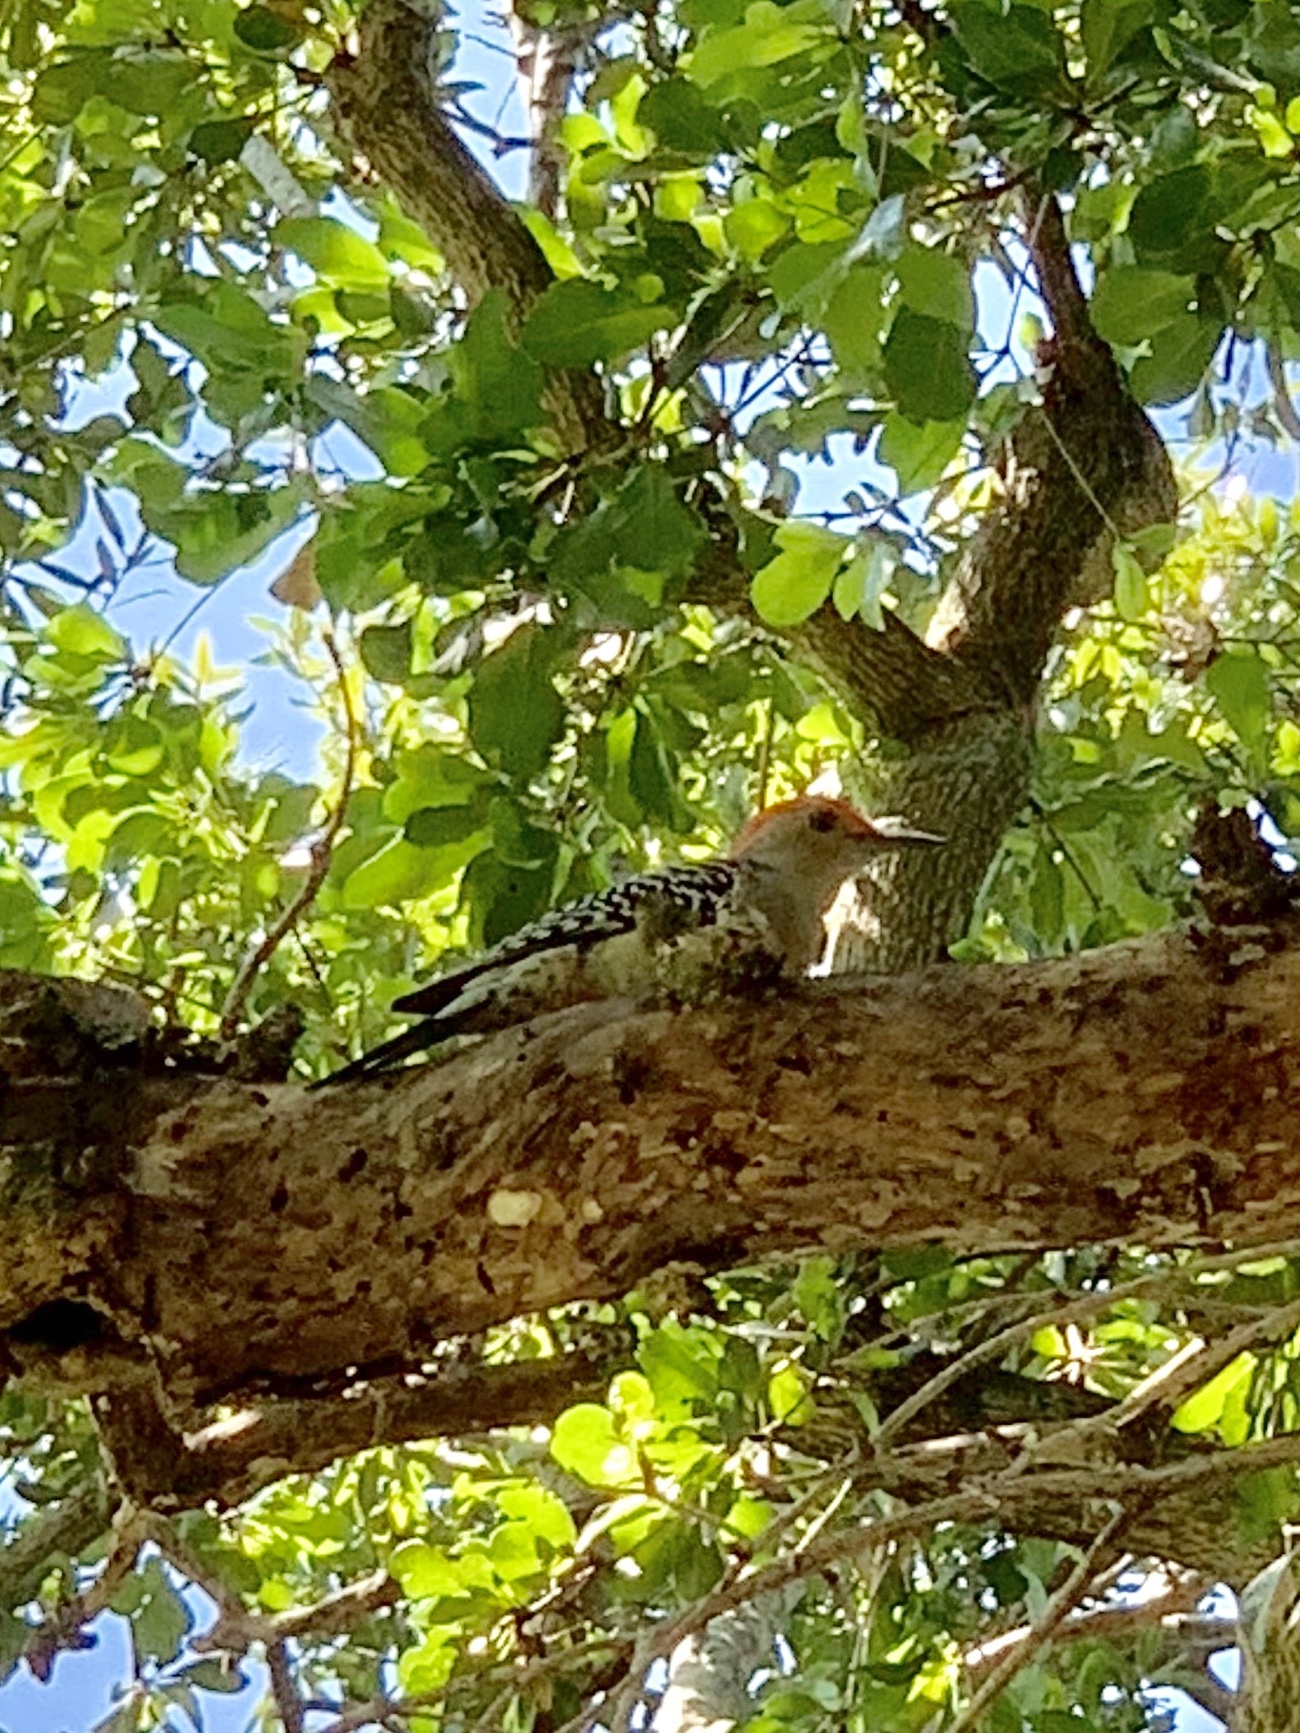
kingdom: Animalia
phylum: Chordata
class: Aves
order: Piciformes
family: Picidae
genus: Melanerpes
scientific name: Melanerpes carolinus
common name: Red-bellied woodpecker
